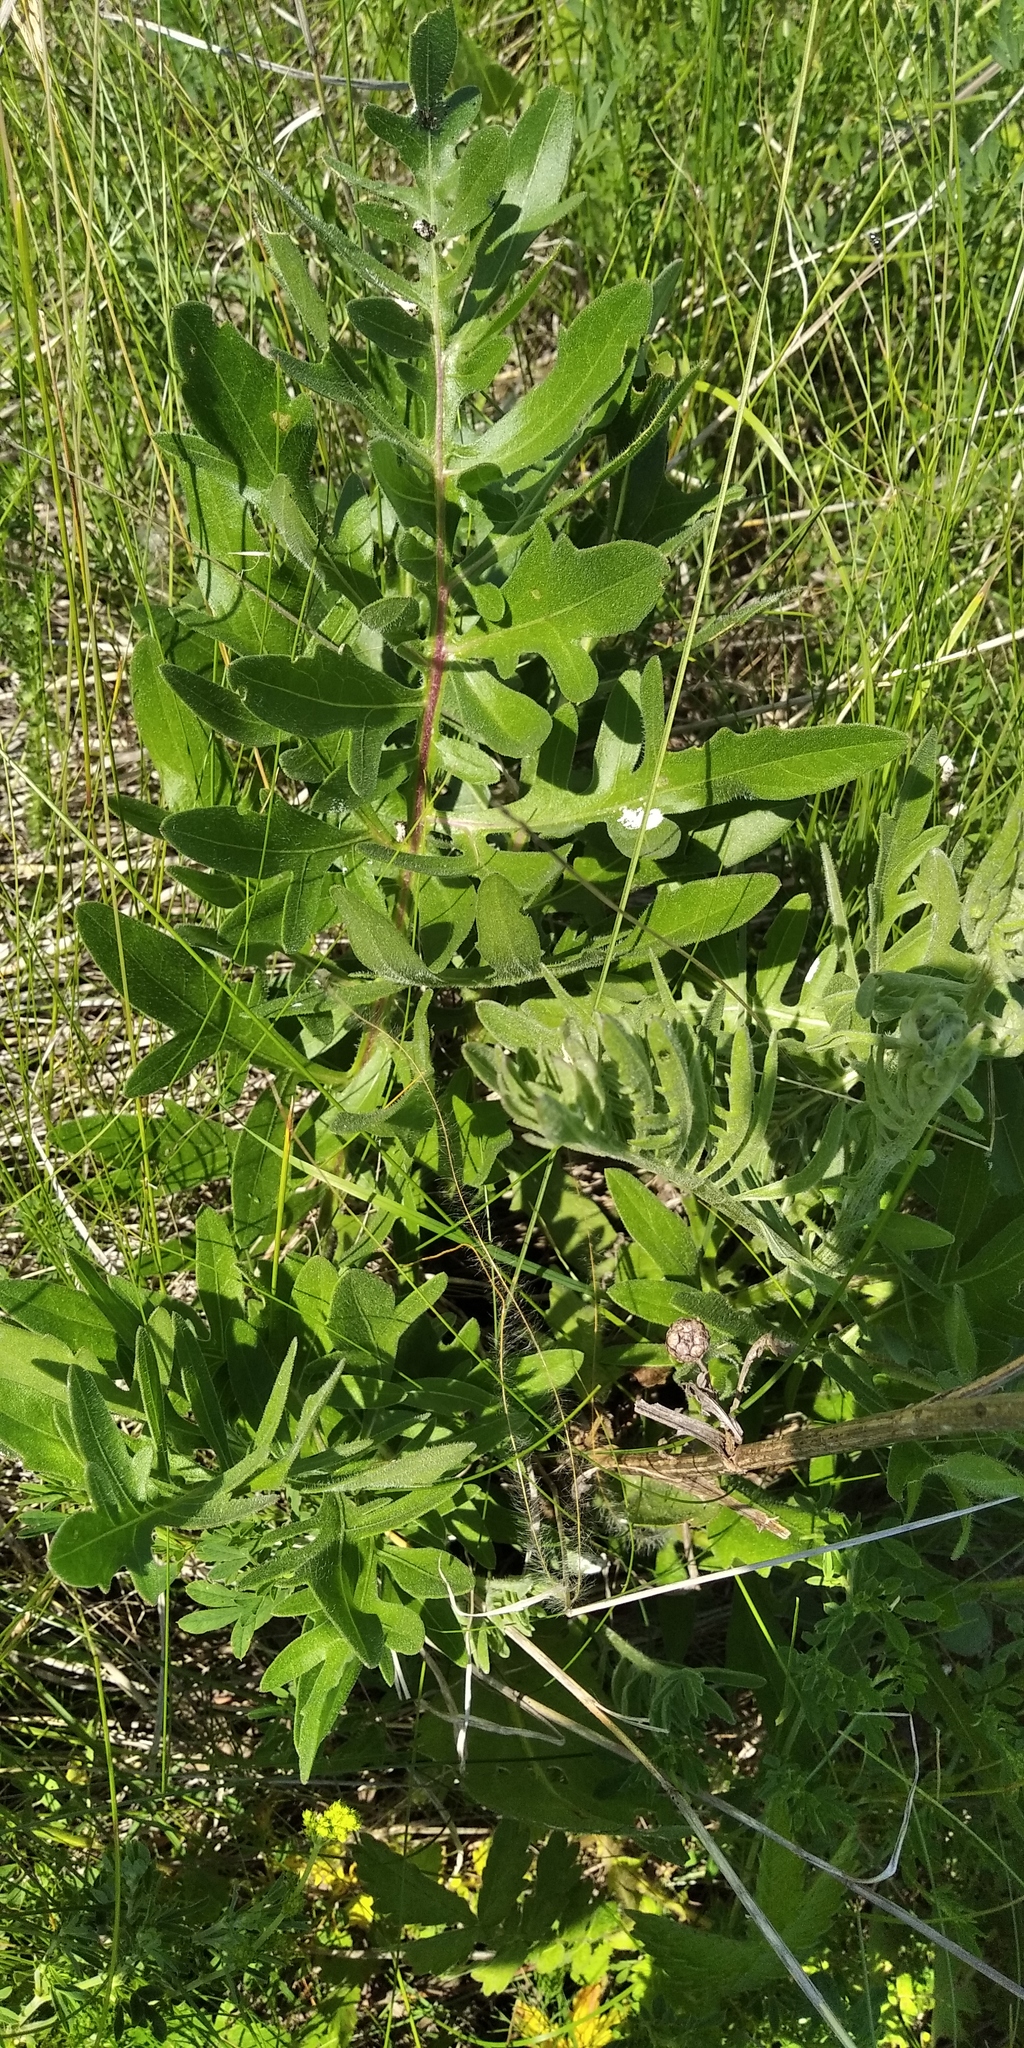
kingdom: Plantae
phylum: Tracheophyta
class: Magnoliopsida
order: Asterales
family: Asteraceae
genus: Centaurea
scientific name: Centaurea scabiosa
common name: Greater knapweed
